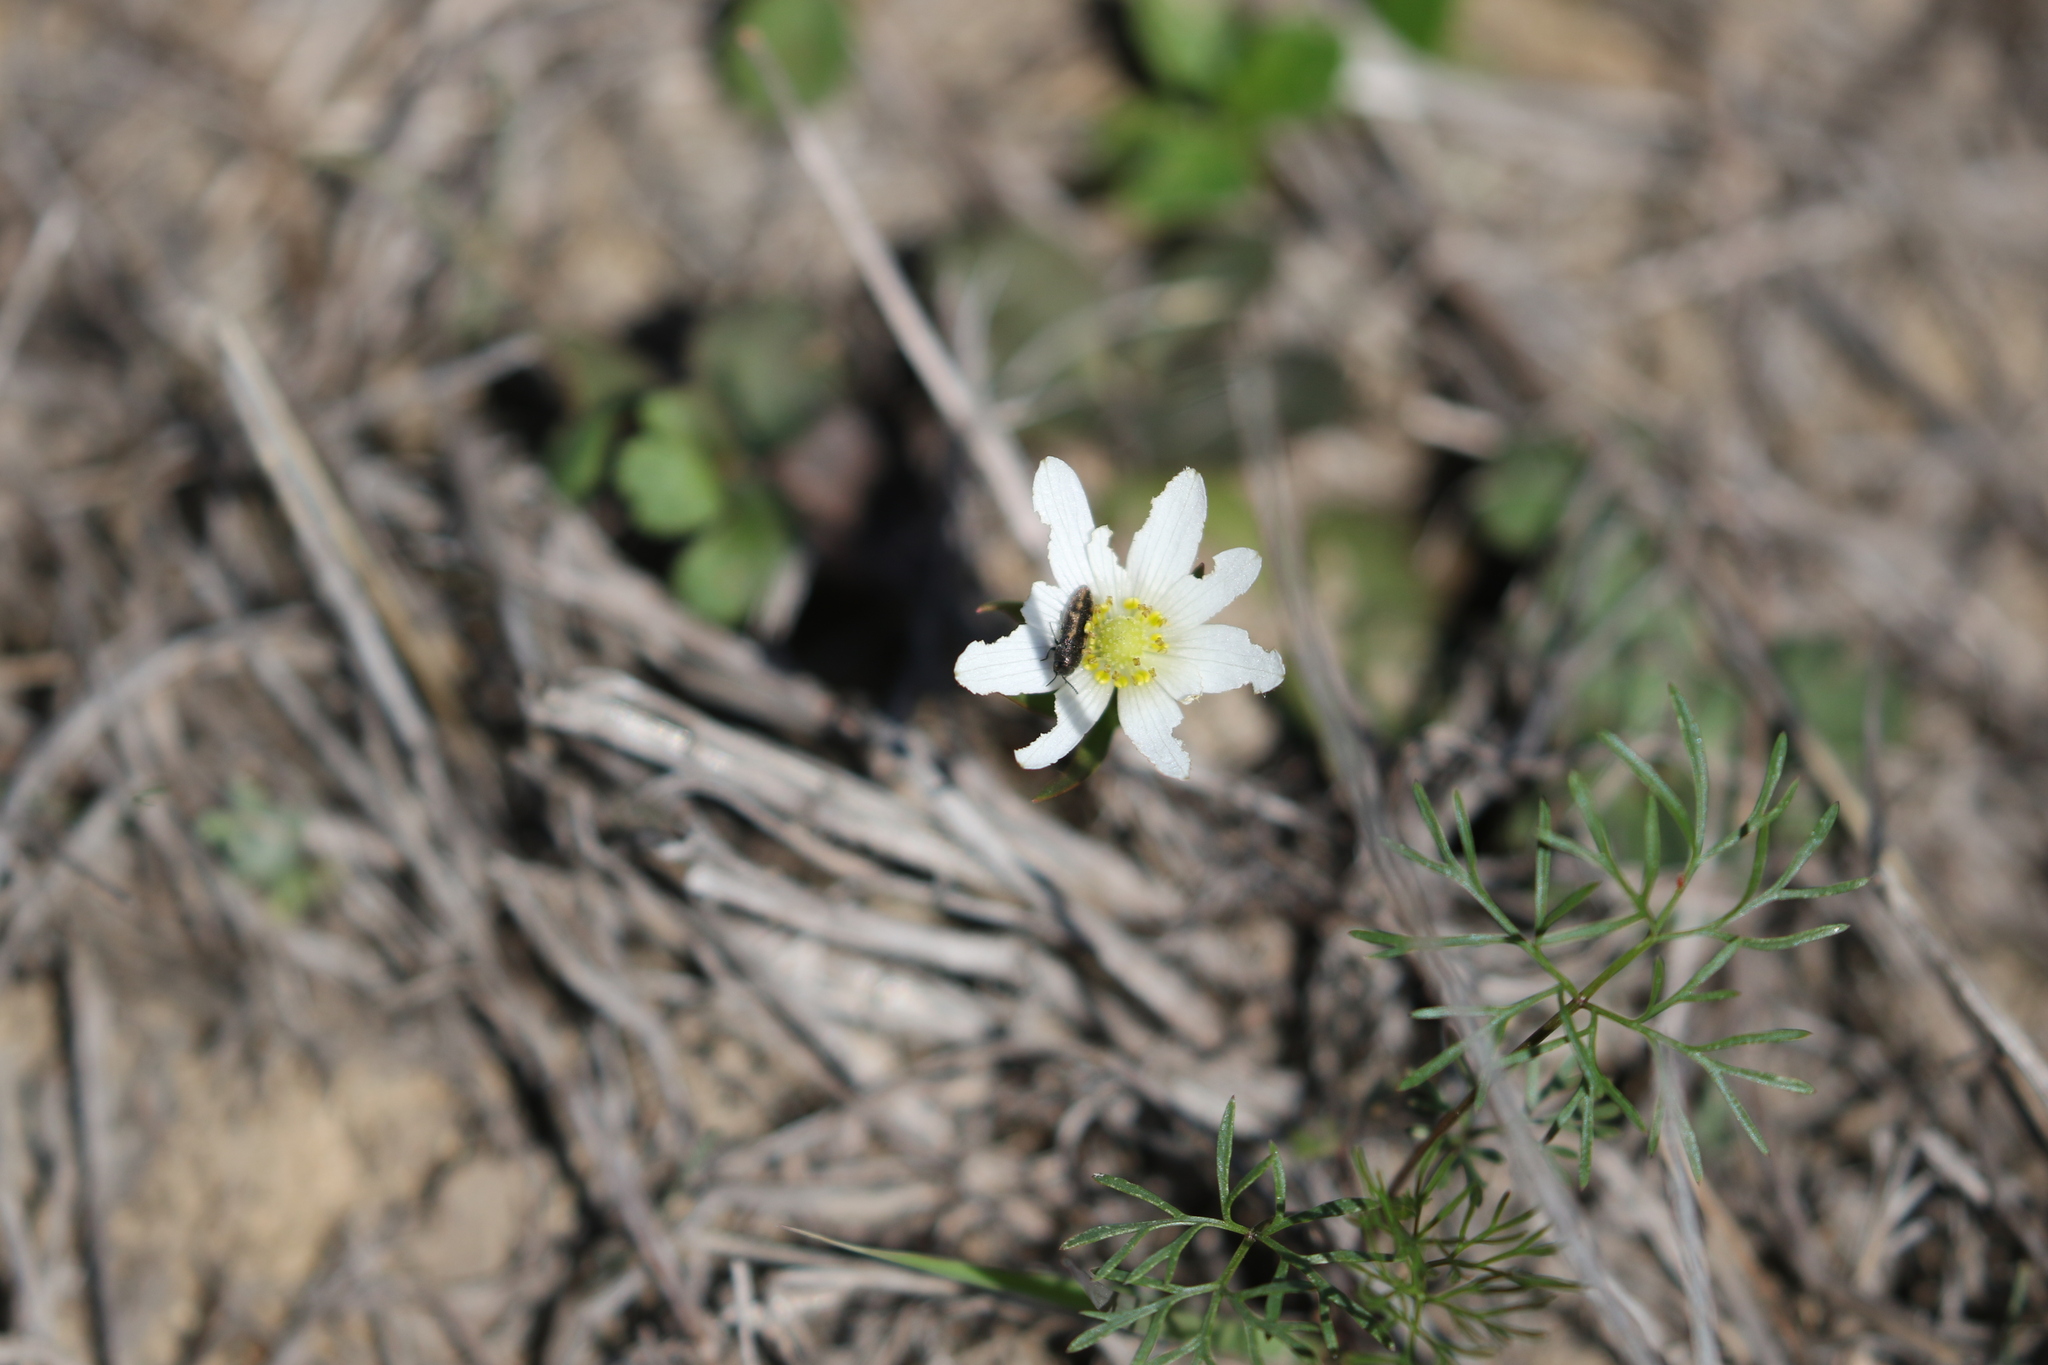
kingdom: Plantae
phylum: Tracheophyta
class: Magnoliopsida
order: Ranunculales
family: Ranunculaceae
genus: Anemone
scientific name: Anemone berlandieri
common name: Ten-petal anemone
